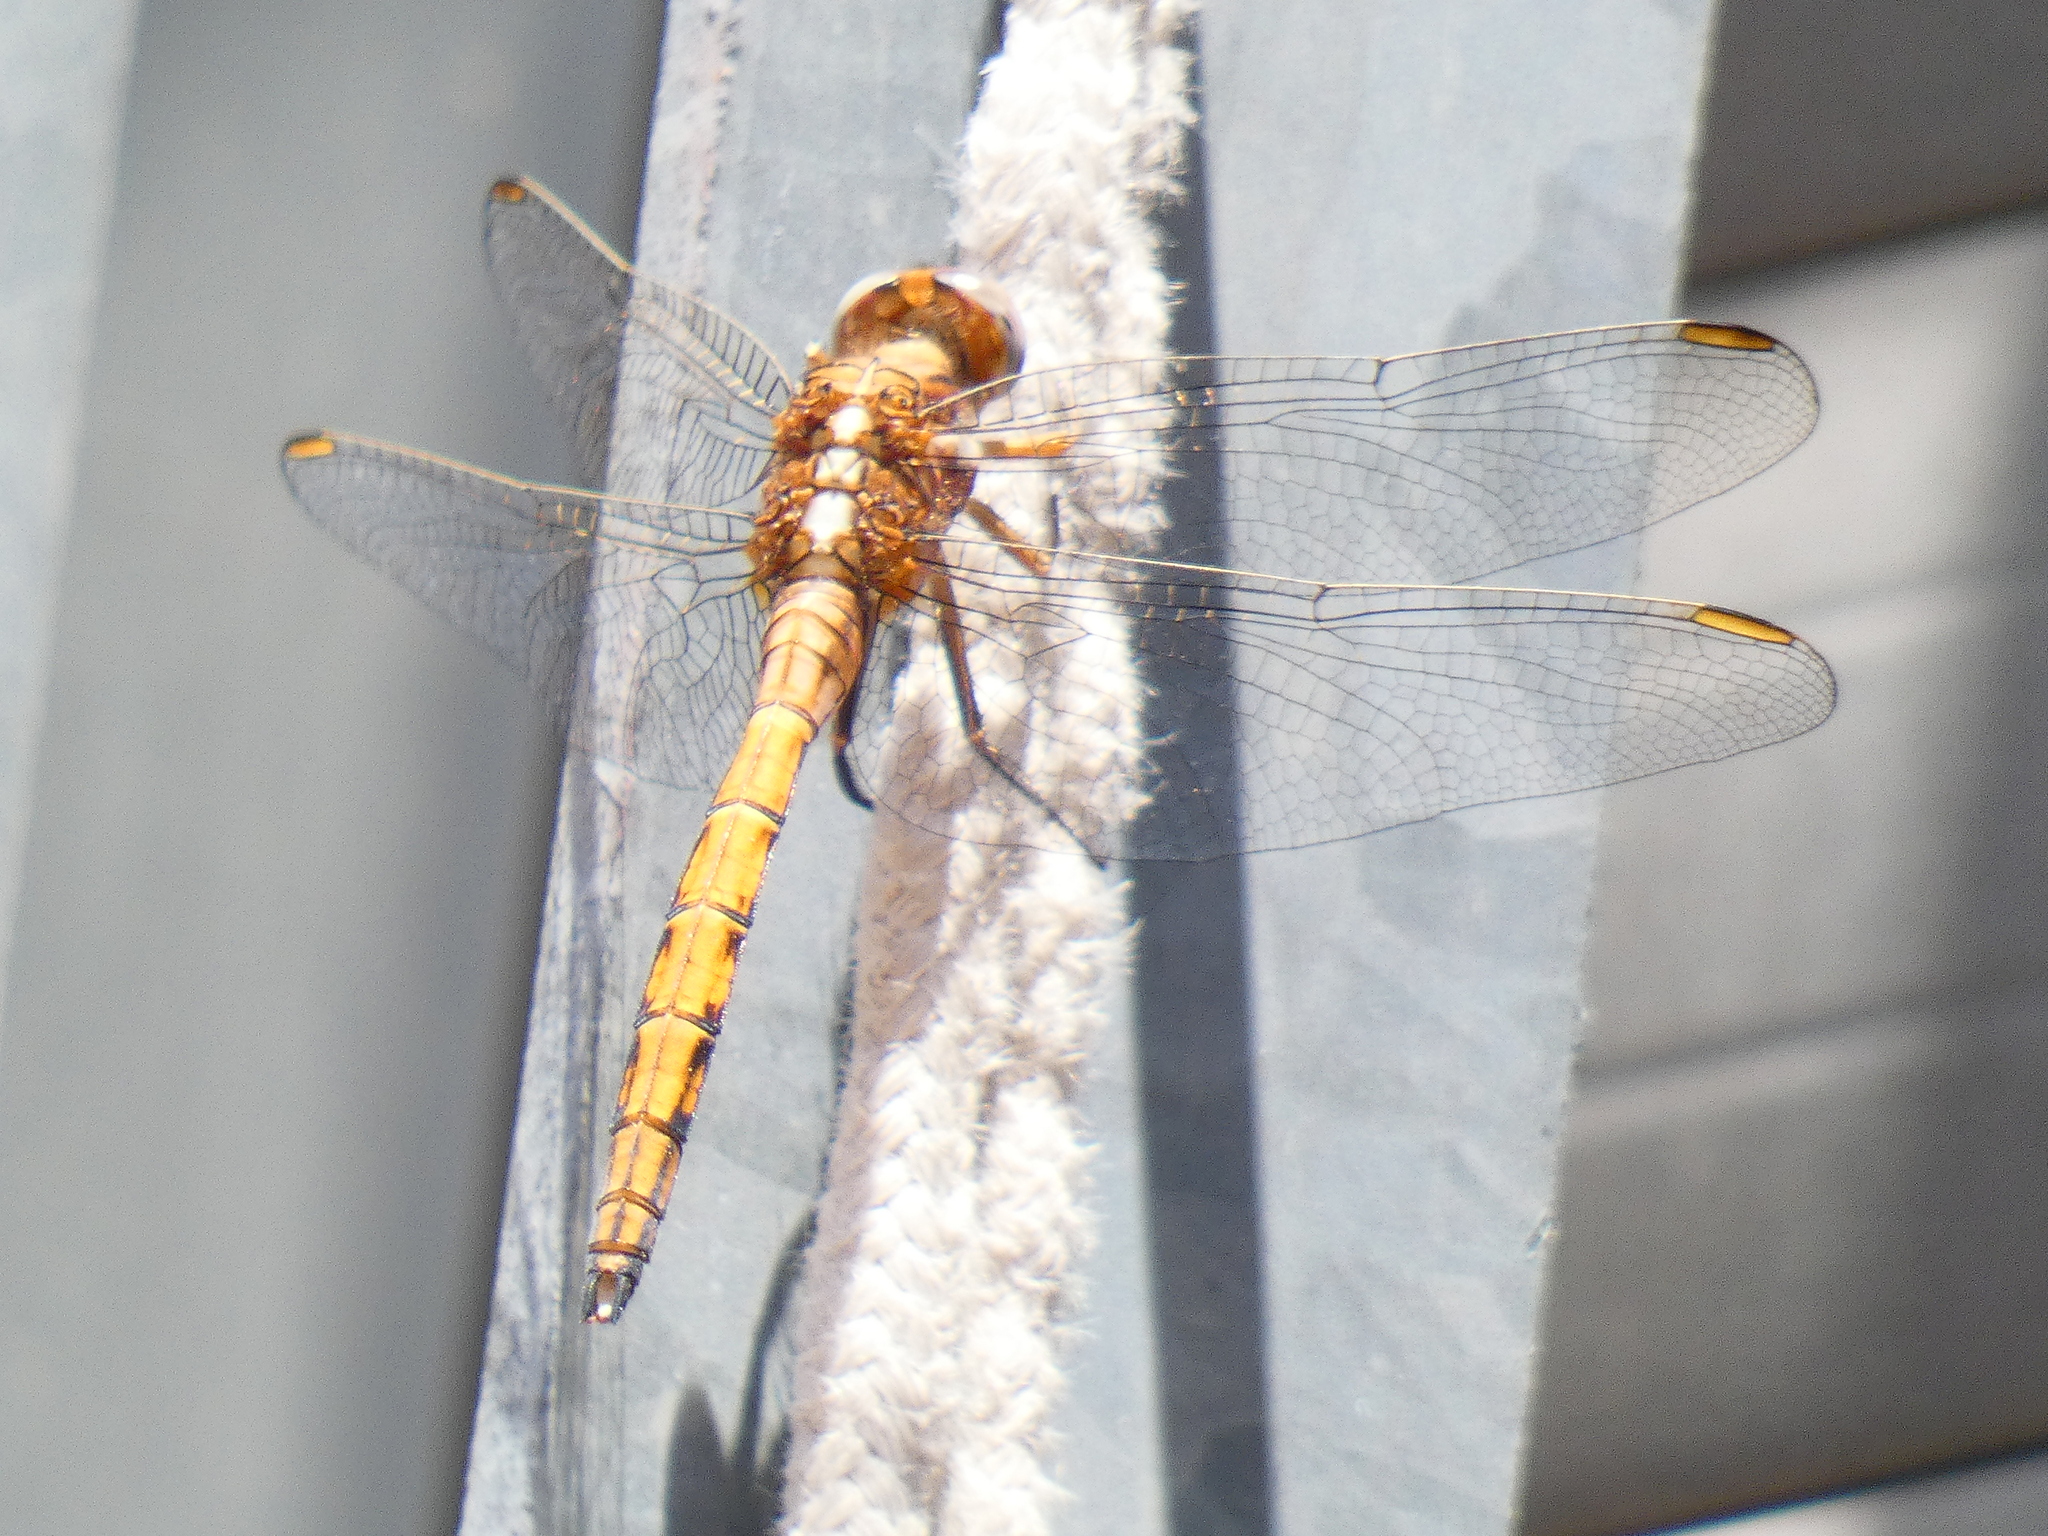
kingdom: Animalia
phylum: Arthropoda
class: Insecta
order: Odonata
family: Libellulidae
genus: Orthetrum
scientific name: Orthetrum chrysostigma
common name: Epaulet skimmer
